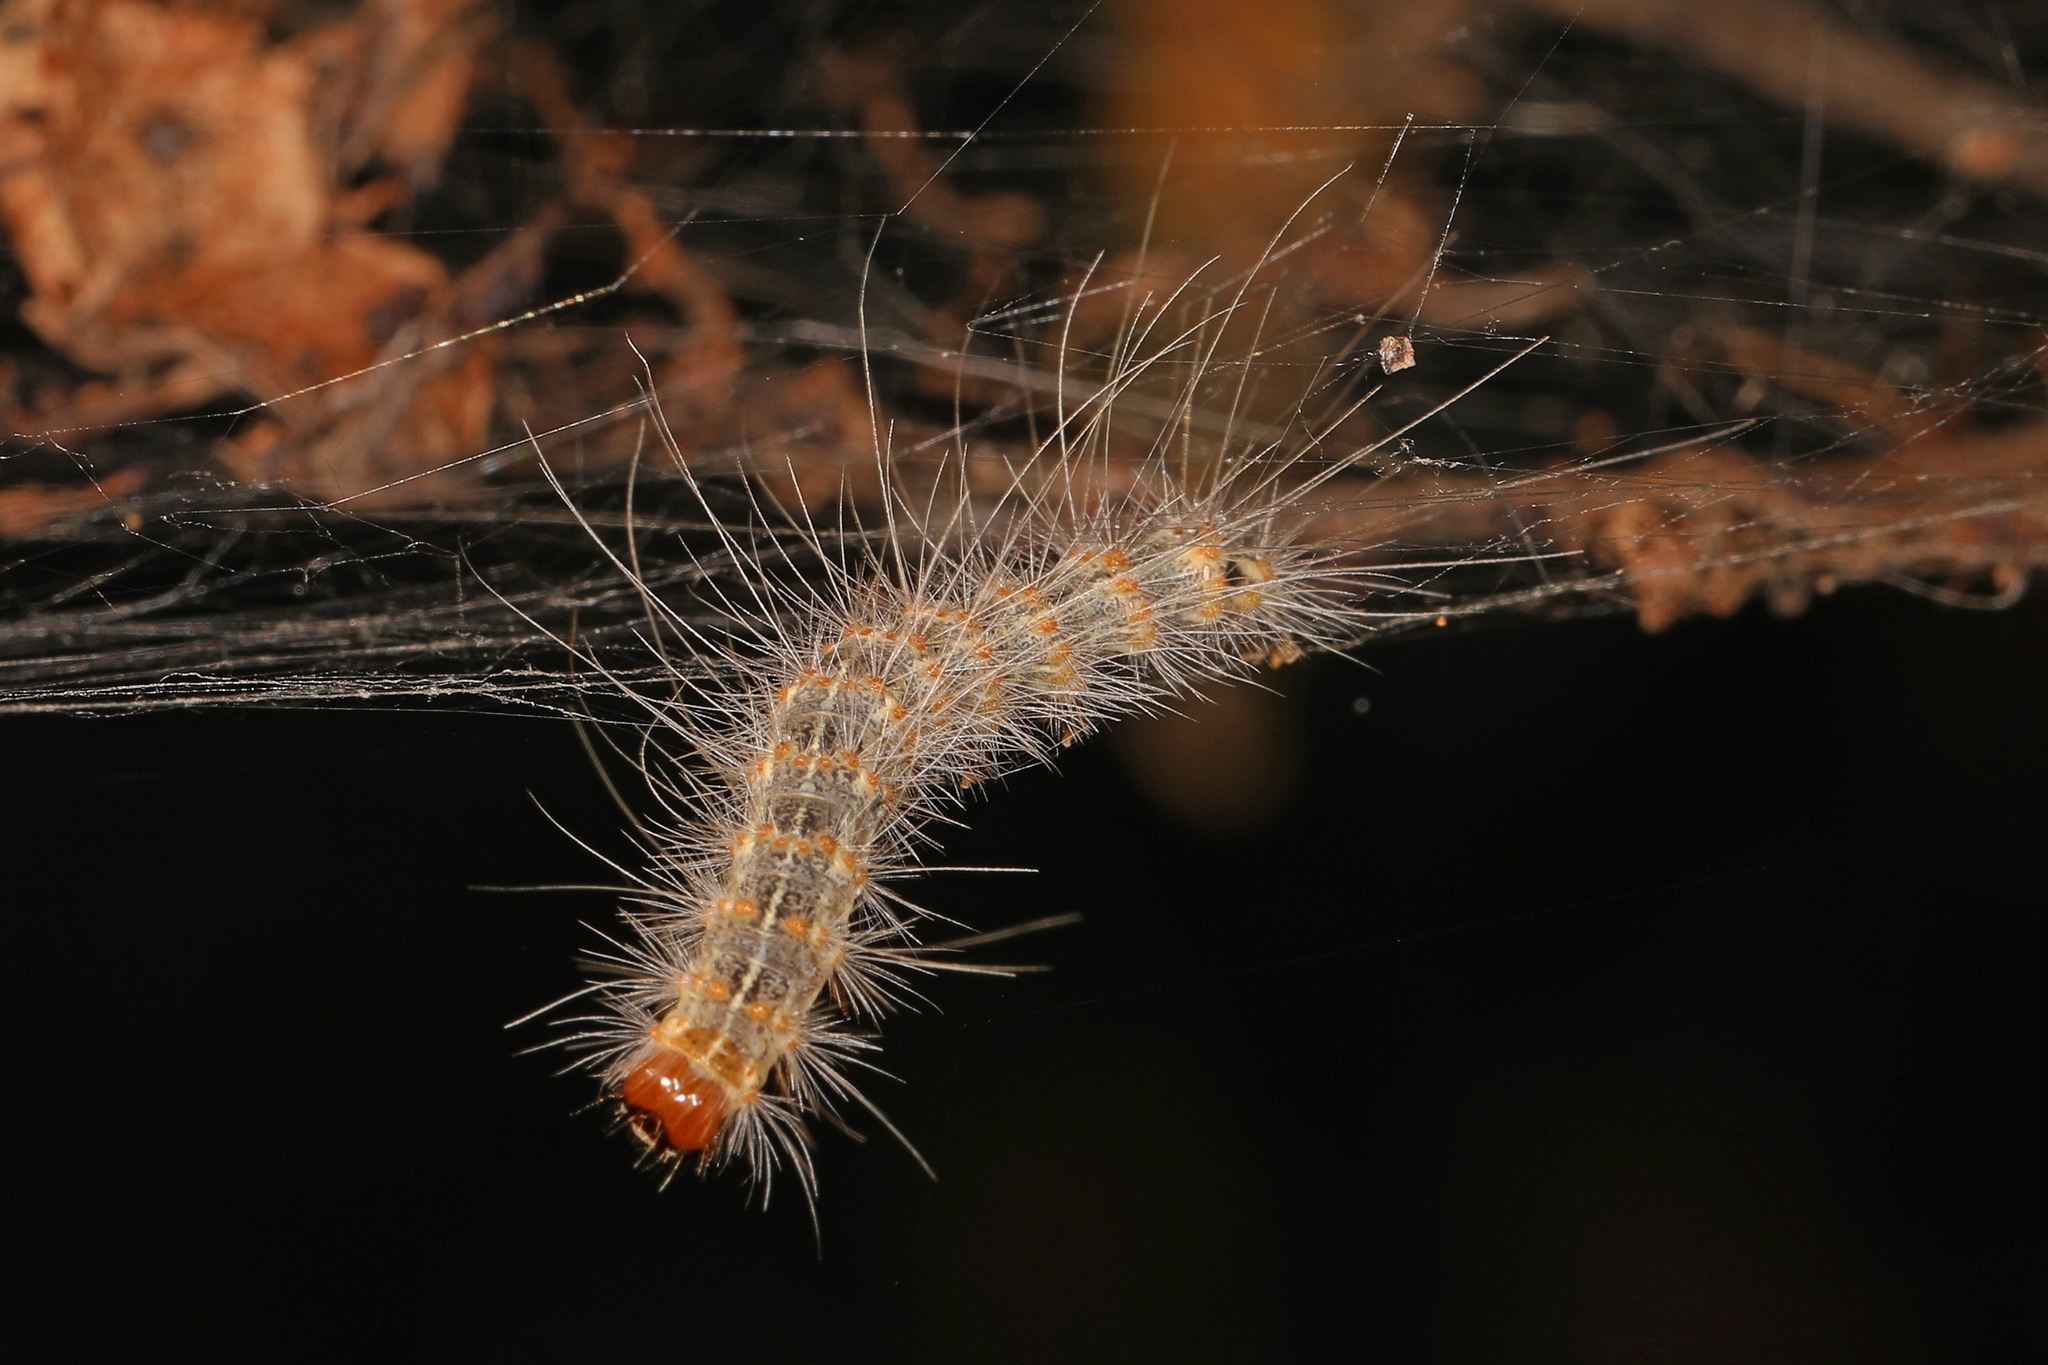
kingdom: Animalia
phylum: Arthropoda
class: Insecta
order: Lepidoptera
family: Erebidae
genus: Hyphantria
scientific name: Hyphantria cunea
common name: American white moth
